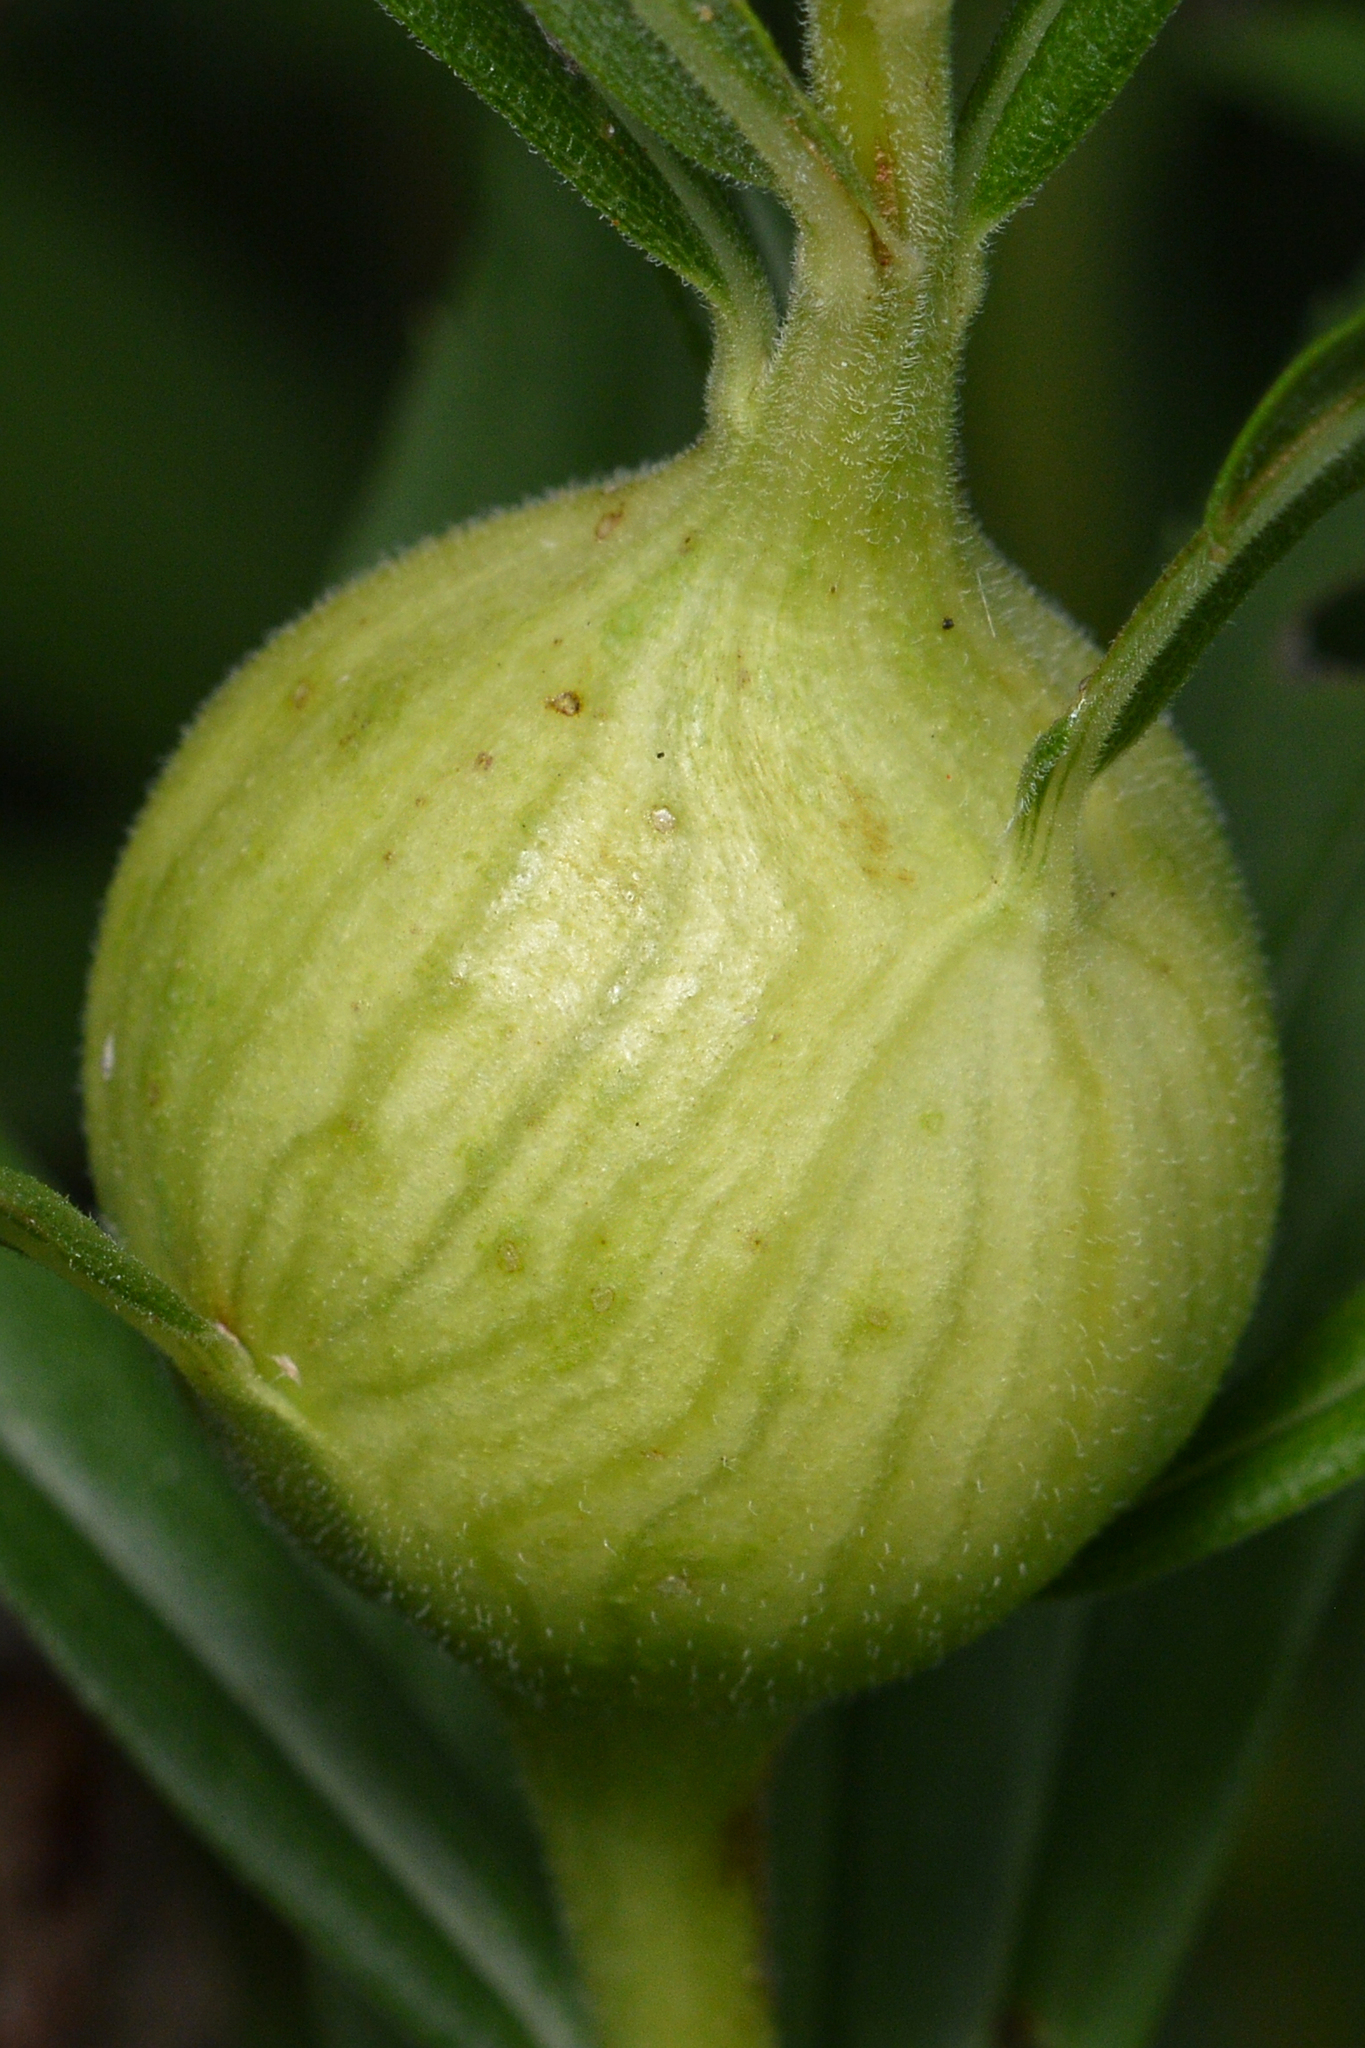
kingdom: Animalia
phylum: Arthropoda
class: Insecta
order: Diptera
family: Tephritidae
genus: Eurosta
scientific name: Eurosta solidaginis
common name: Goldenrod gall fly
